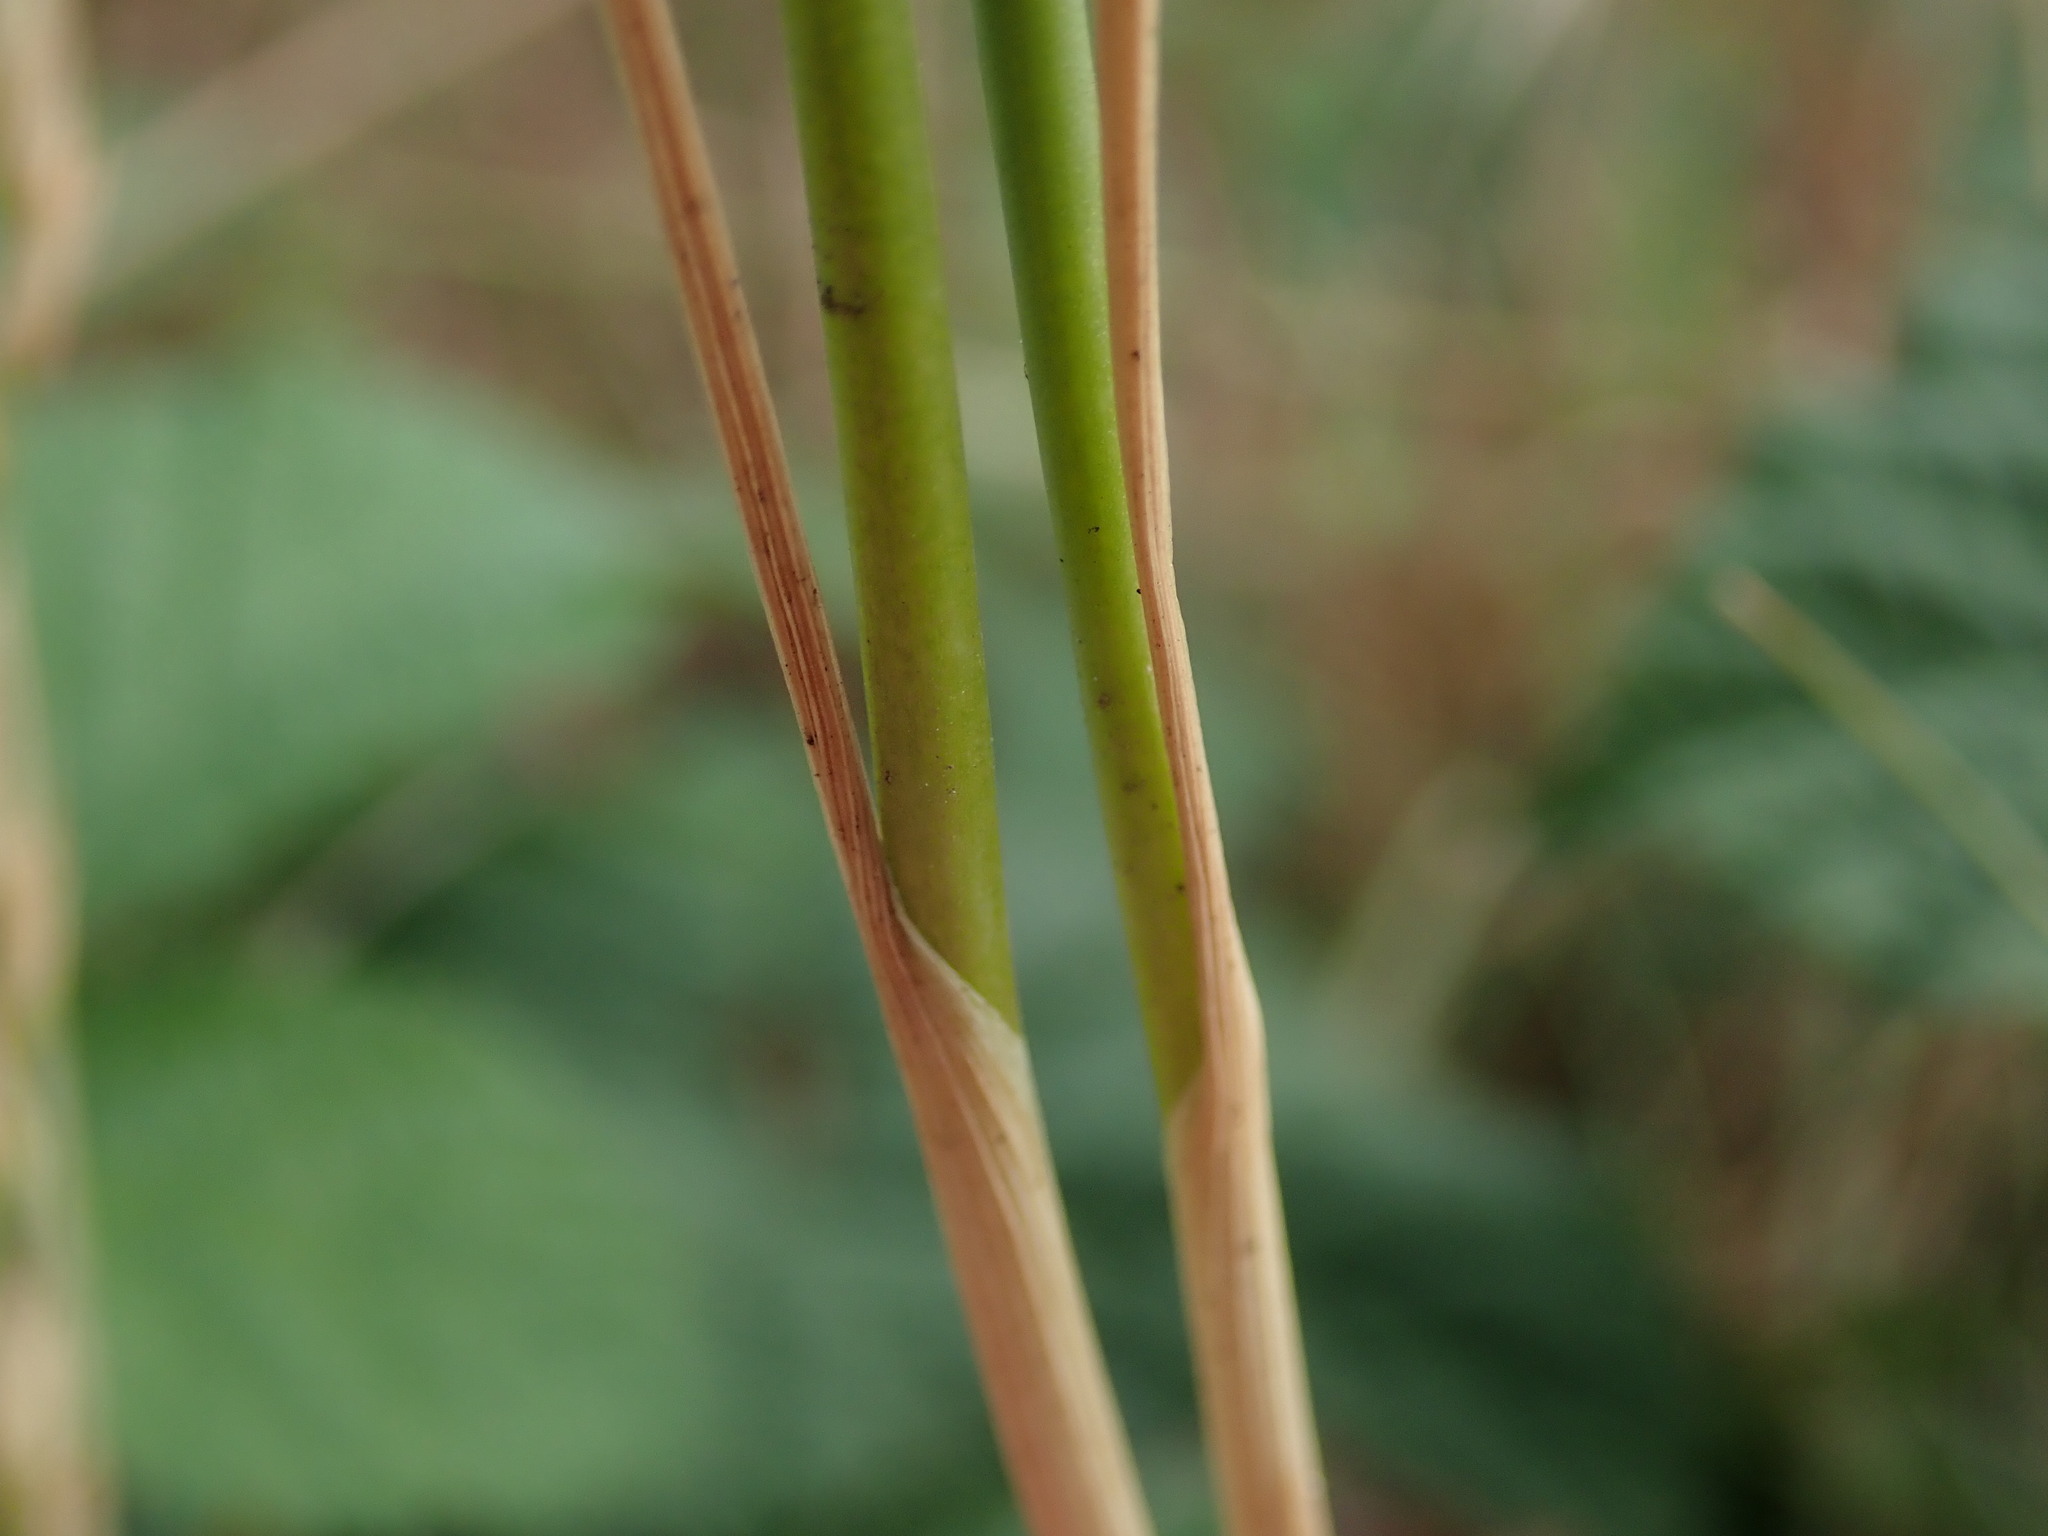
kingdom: Plantae
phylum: Tracheophyta
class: Liliopsida
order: Asparagales
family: Amaryllidaceae
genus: Allium
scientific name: Allium vineale
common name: Crow garlic
